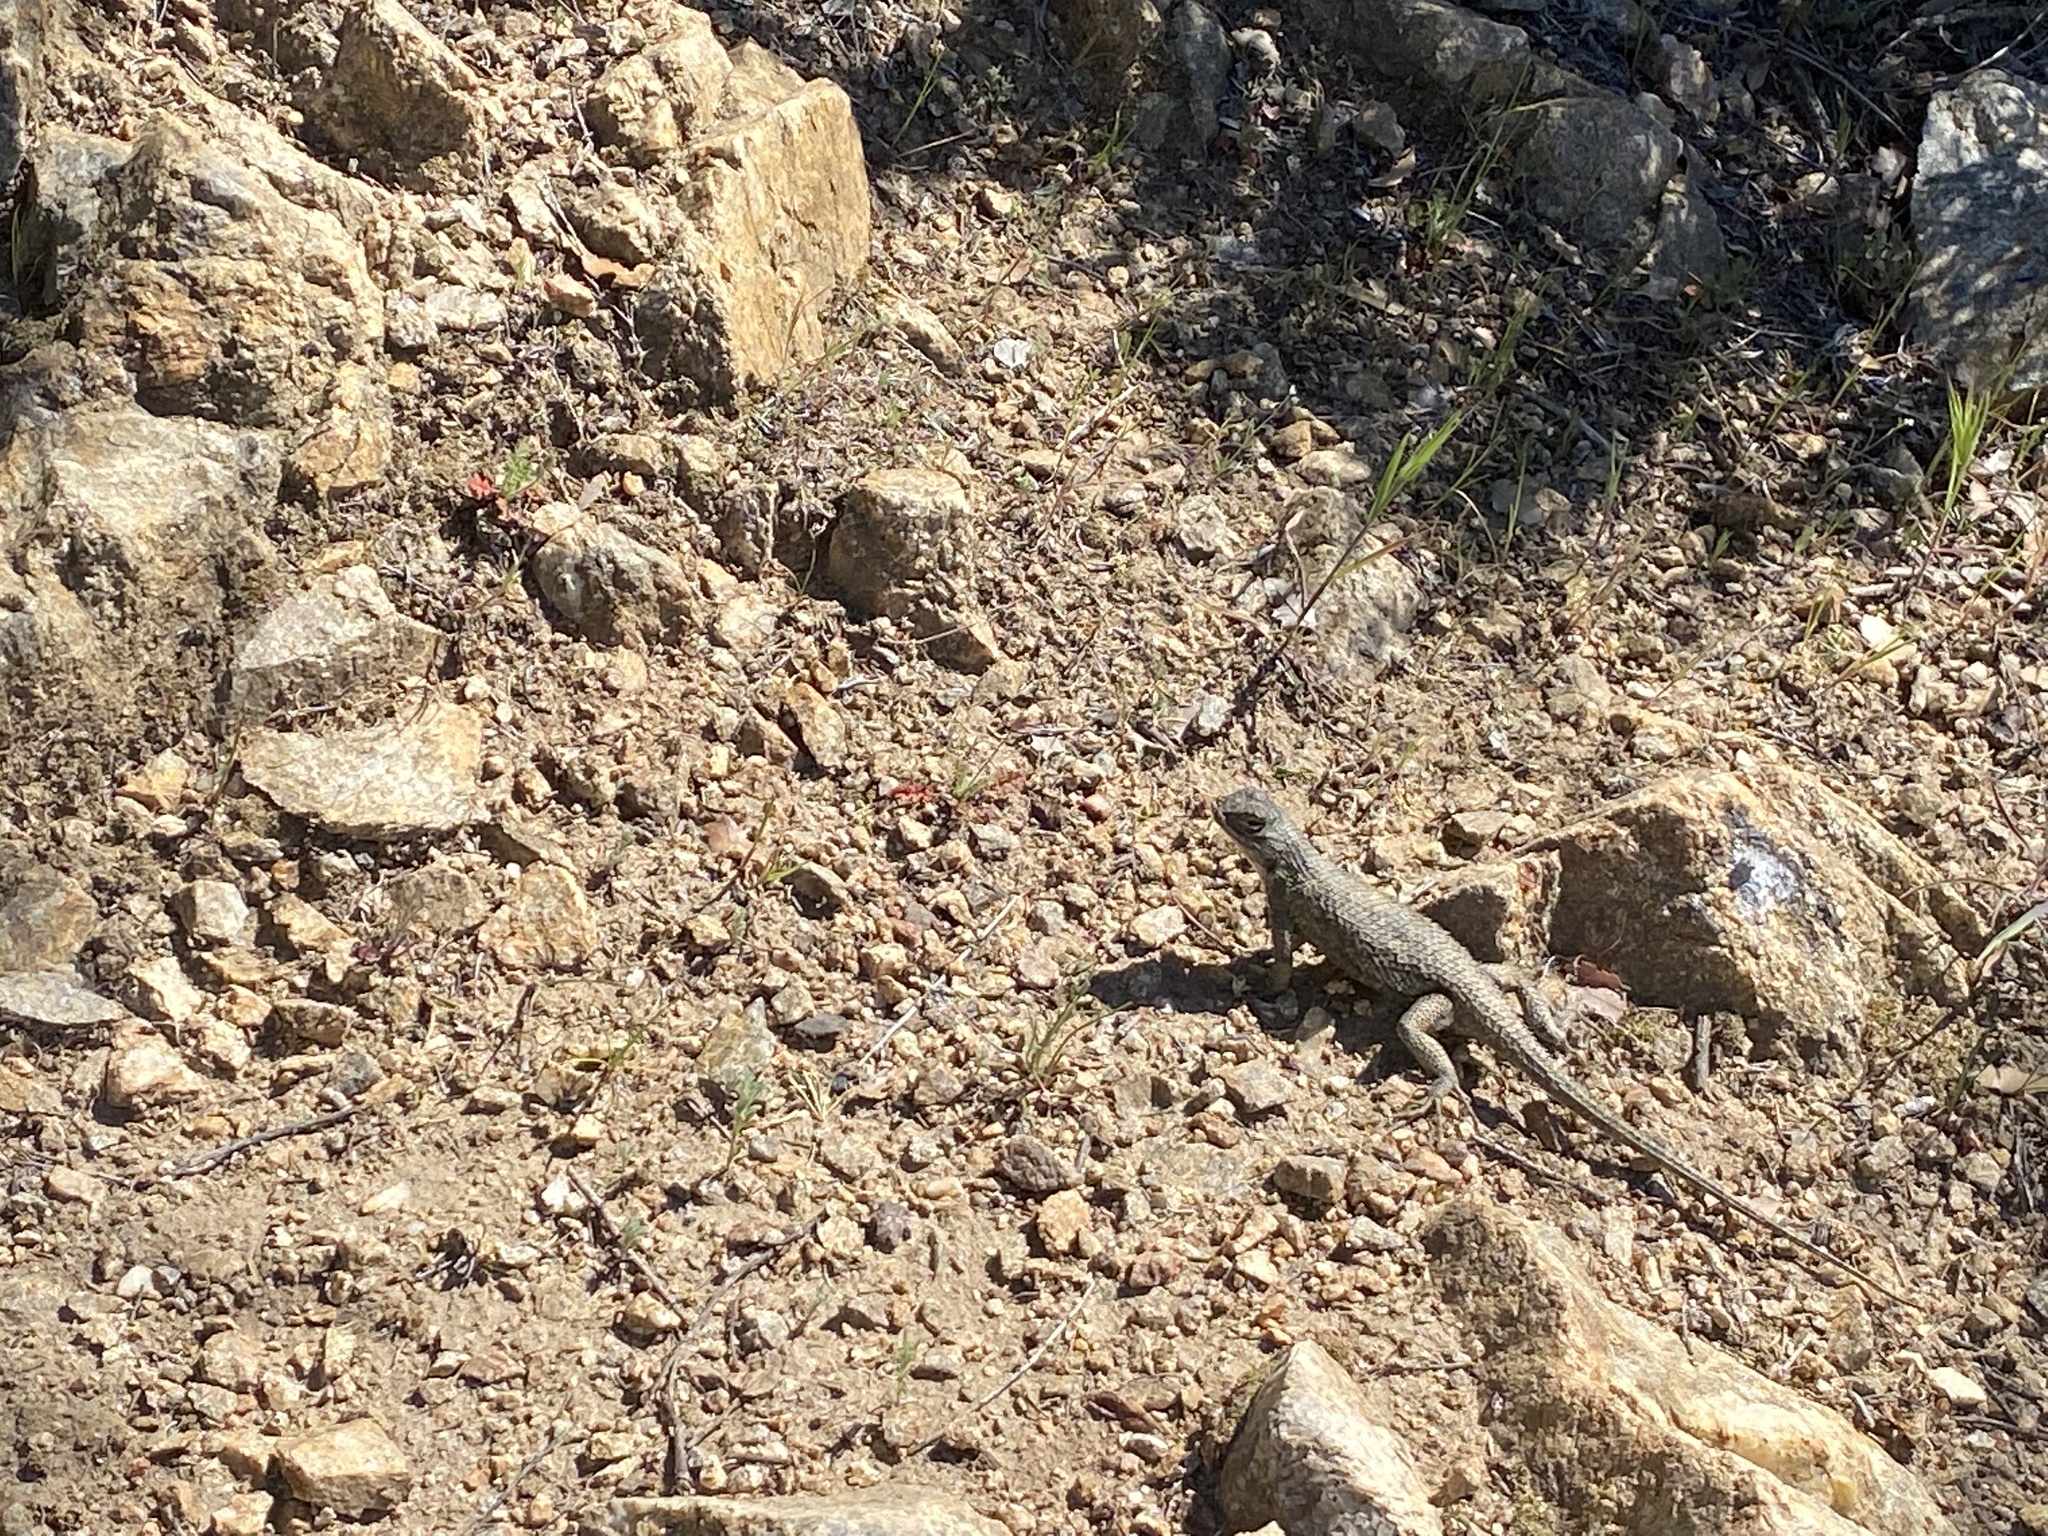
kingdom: Animalia
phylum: Chordata
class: Squamata
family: Phrynosomatidae
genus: Sceloporus
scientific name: Sceloporus occidentalis
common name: Western fence lizard
